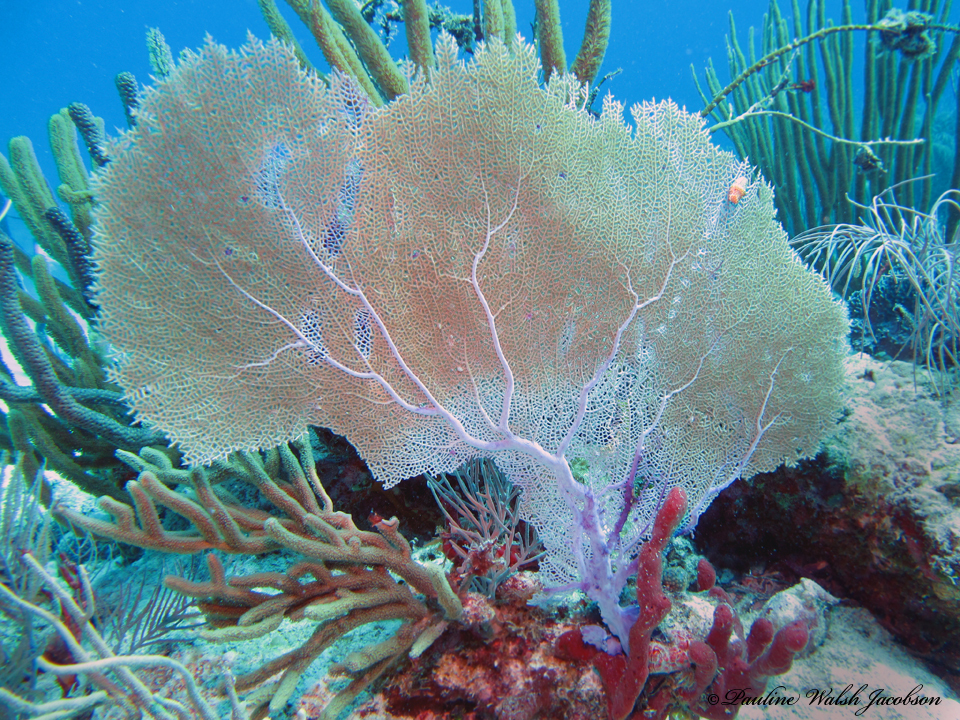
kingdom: Animalia
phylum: Cnidaria
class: Anthozoa
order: Malacalcyonacea
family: Gorgoniidae
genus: Gorgonia
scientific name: Gorgonia ventalina
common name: Common sea fan
